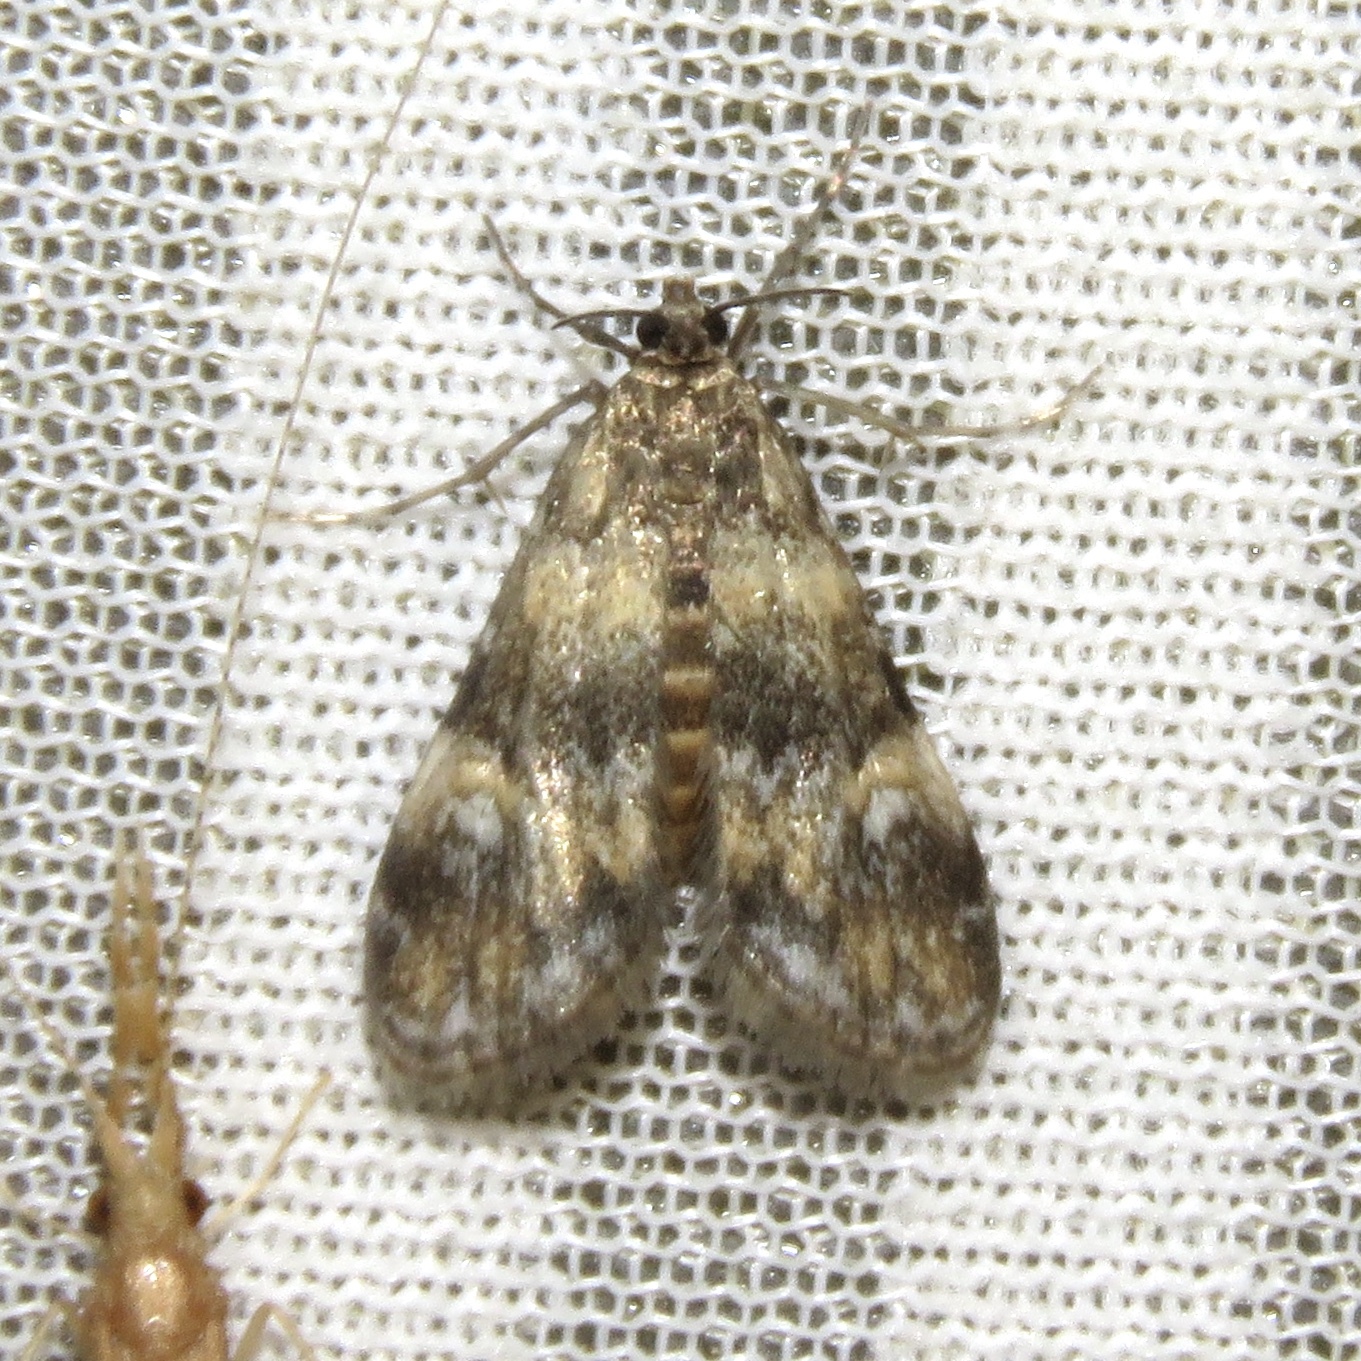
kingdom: Animalia
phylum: Arthropoda
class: Insecta
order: Lepidoptera
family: Crambidae
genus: Elophila
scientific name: Elophila obliteralis
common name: Waterlily leafcutter moth
